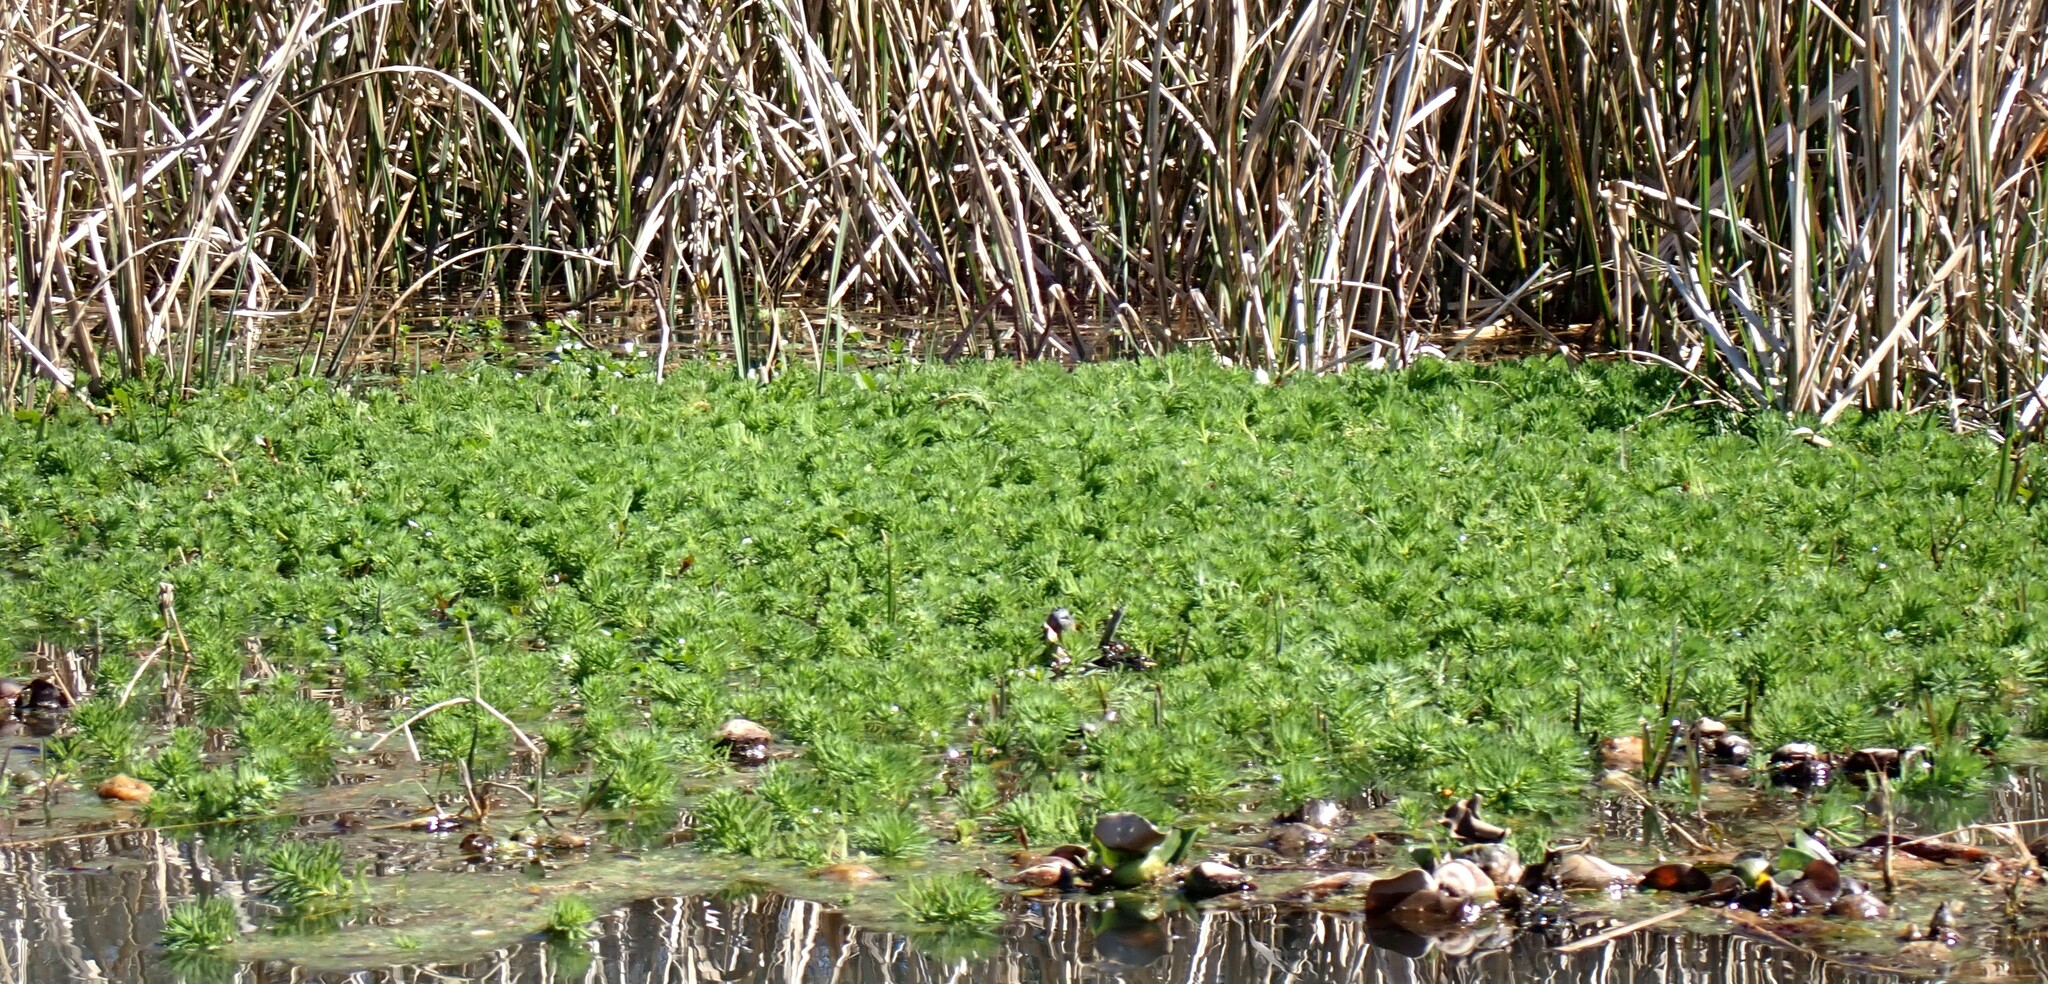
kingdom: Plantae
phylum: Tracheophyta
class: Magnoliopsida
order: Saxifragales
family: Haloragaceae
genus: Myriophyllum
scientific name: Myriophyllum aquaticum
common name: Parrot's feather
